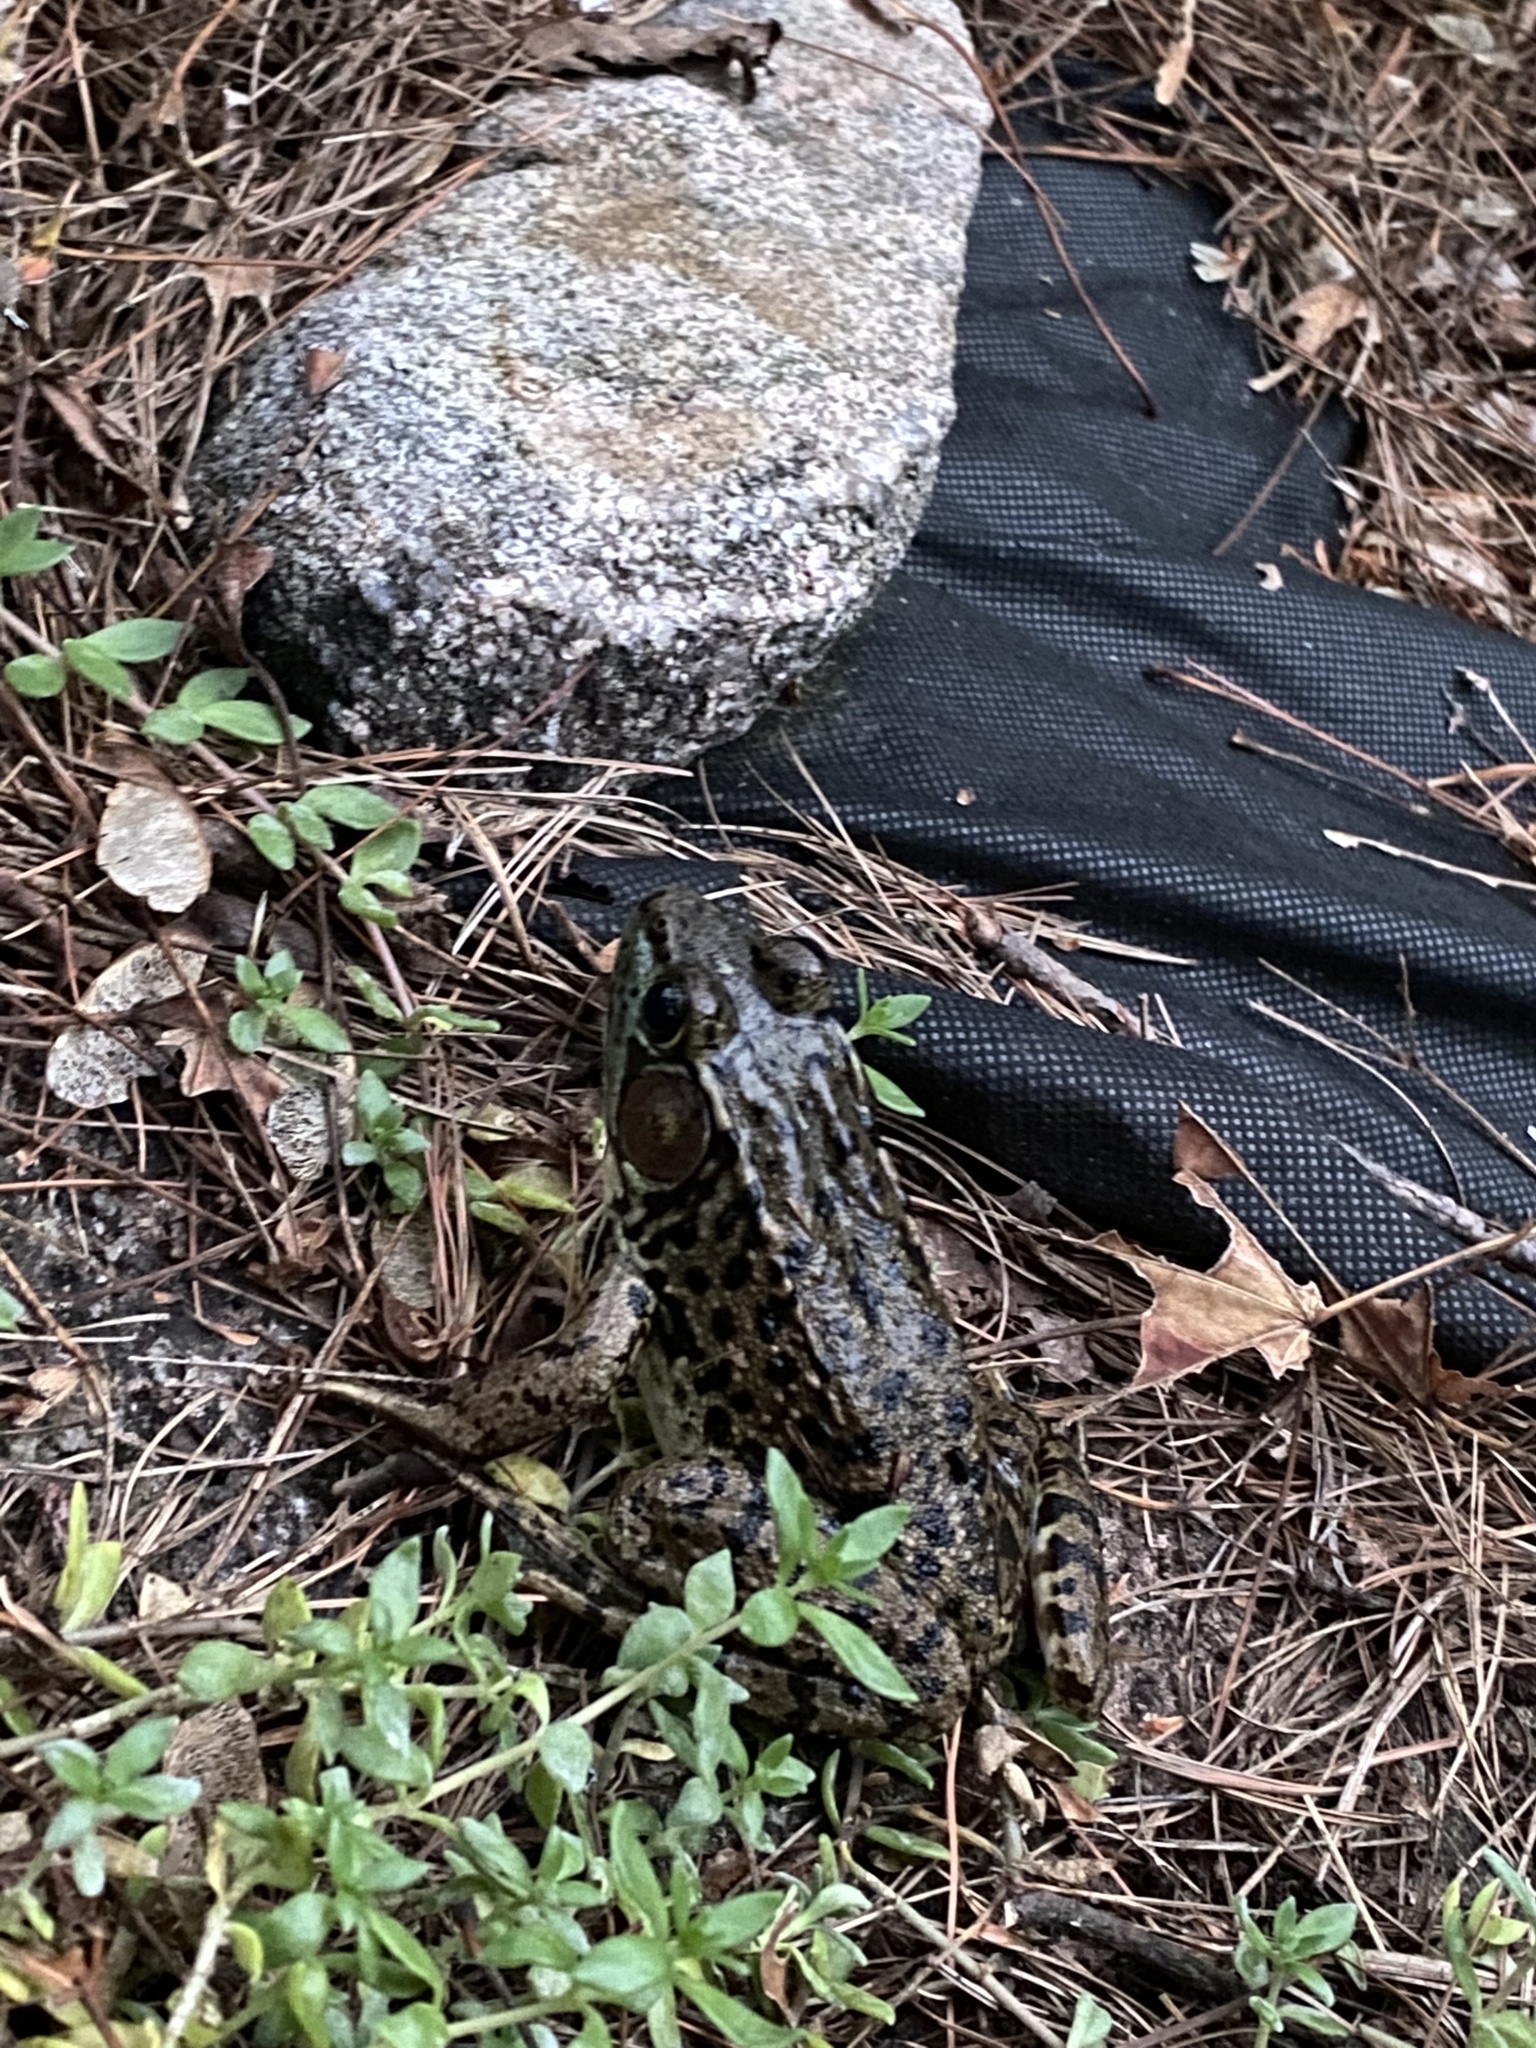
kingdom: Animalia
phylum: Chordata
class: Amphibia
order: Anura
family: Ranidae
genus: Lithobates
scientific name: Lithobates clamitans
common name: Green frog
